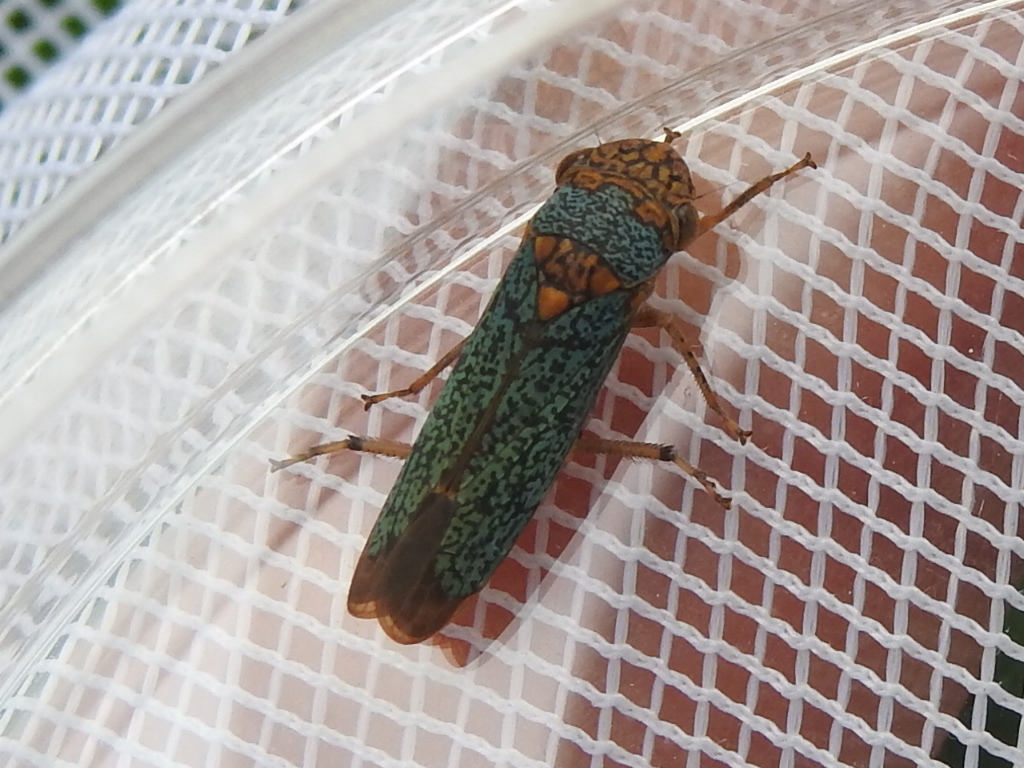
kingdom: Animalia
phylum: Arthropoda
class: Insecta
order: Hemiptera
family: Cicadellidae
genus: Oncometopia
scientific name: Oncometopia orbona
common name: Broad-headed sharpshooter
